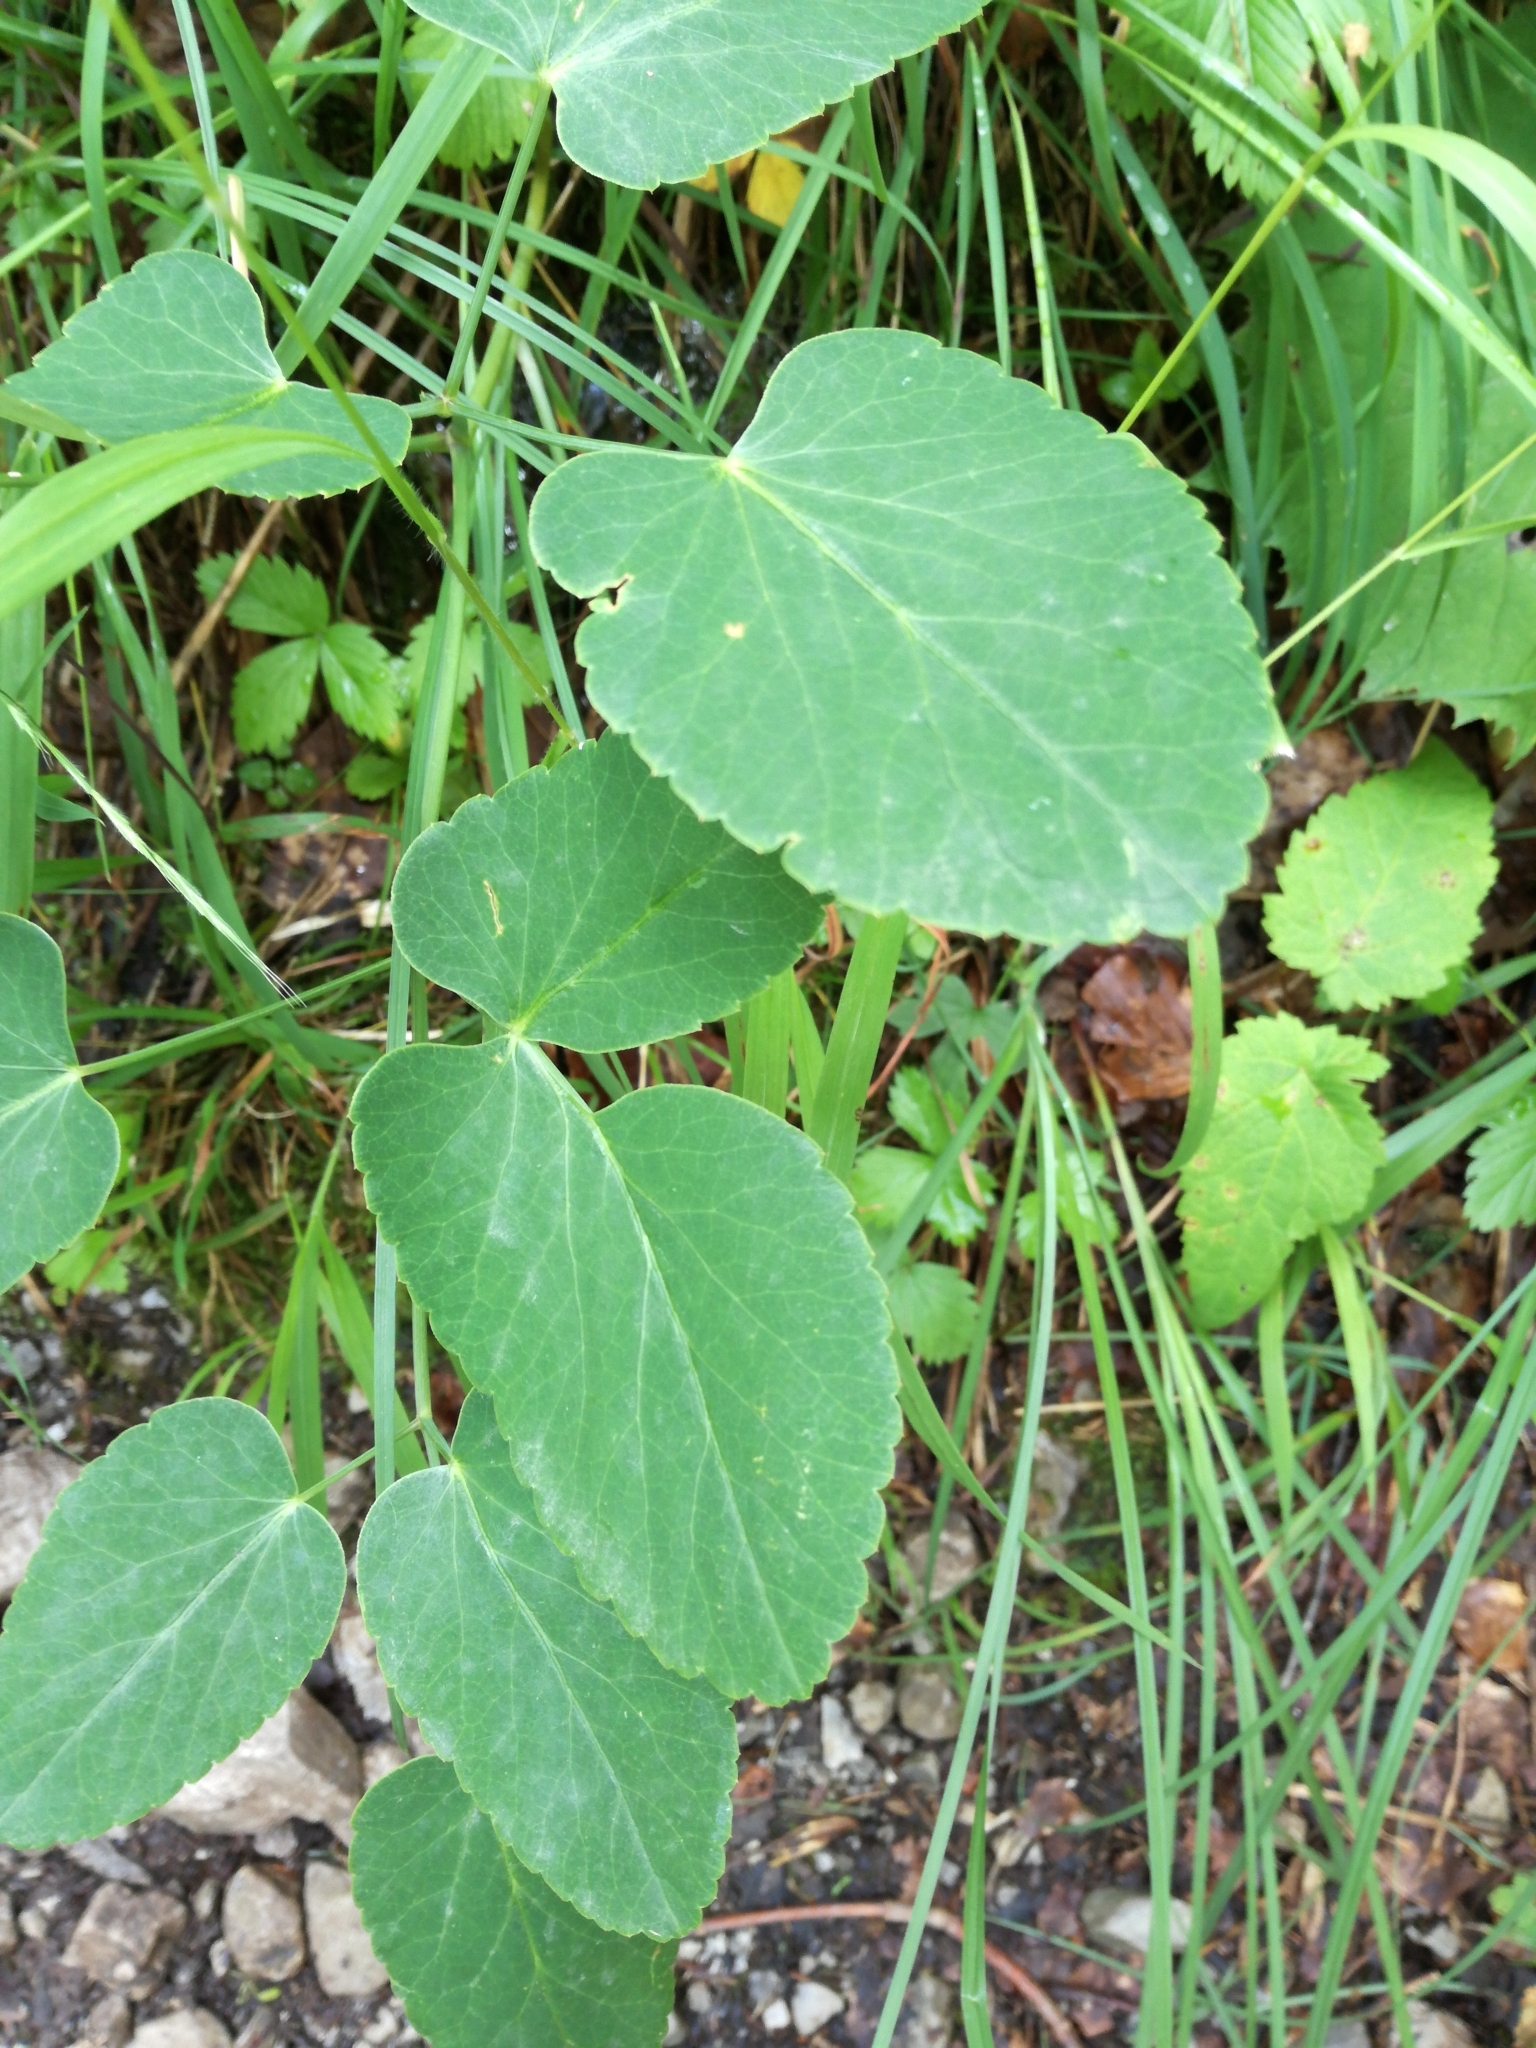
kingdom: Plantae
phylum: Tracheophyta
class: Magnoliopsida
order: Apiales
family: Apiaceae
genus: Laserpitium
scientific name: Laserpitium latifolium
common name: Broadleaf sermountain
